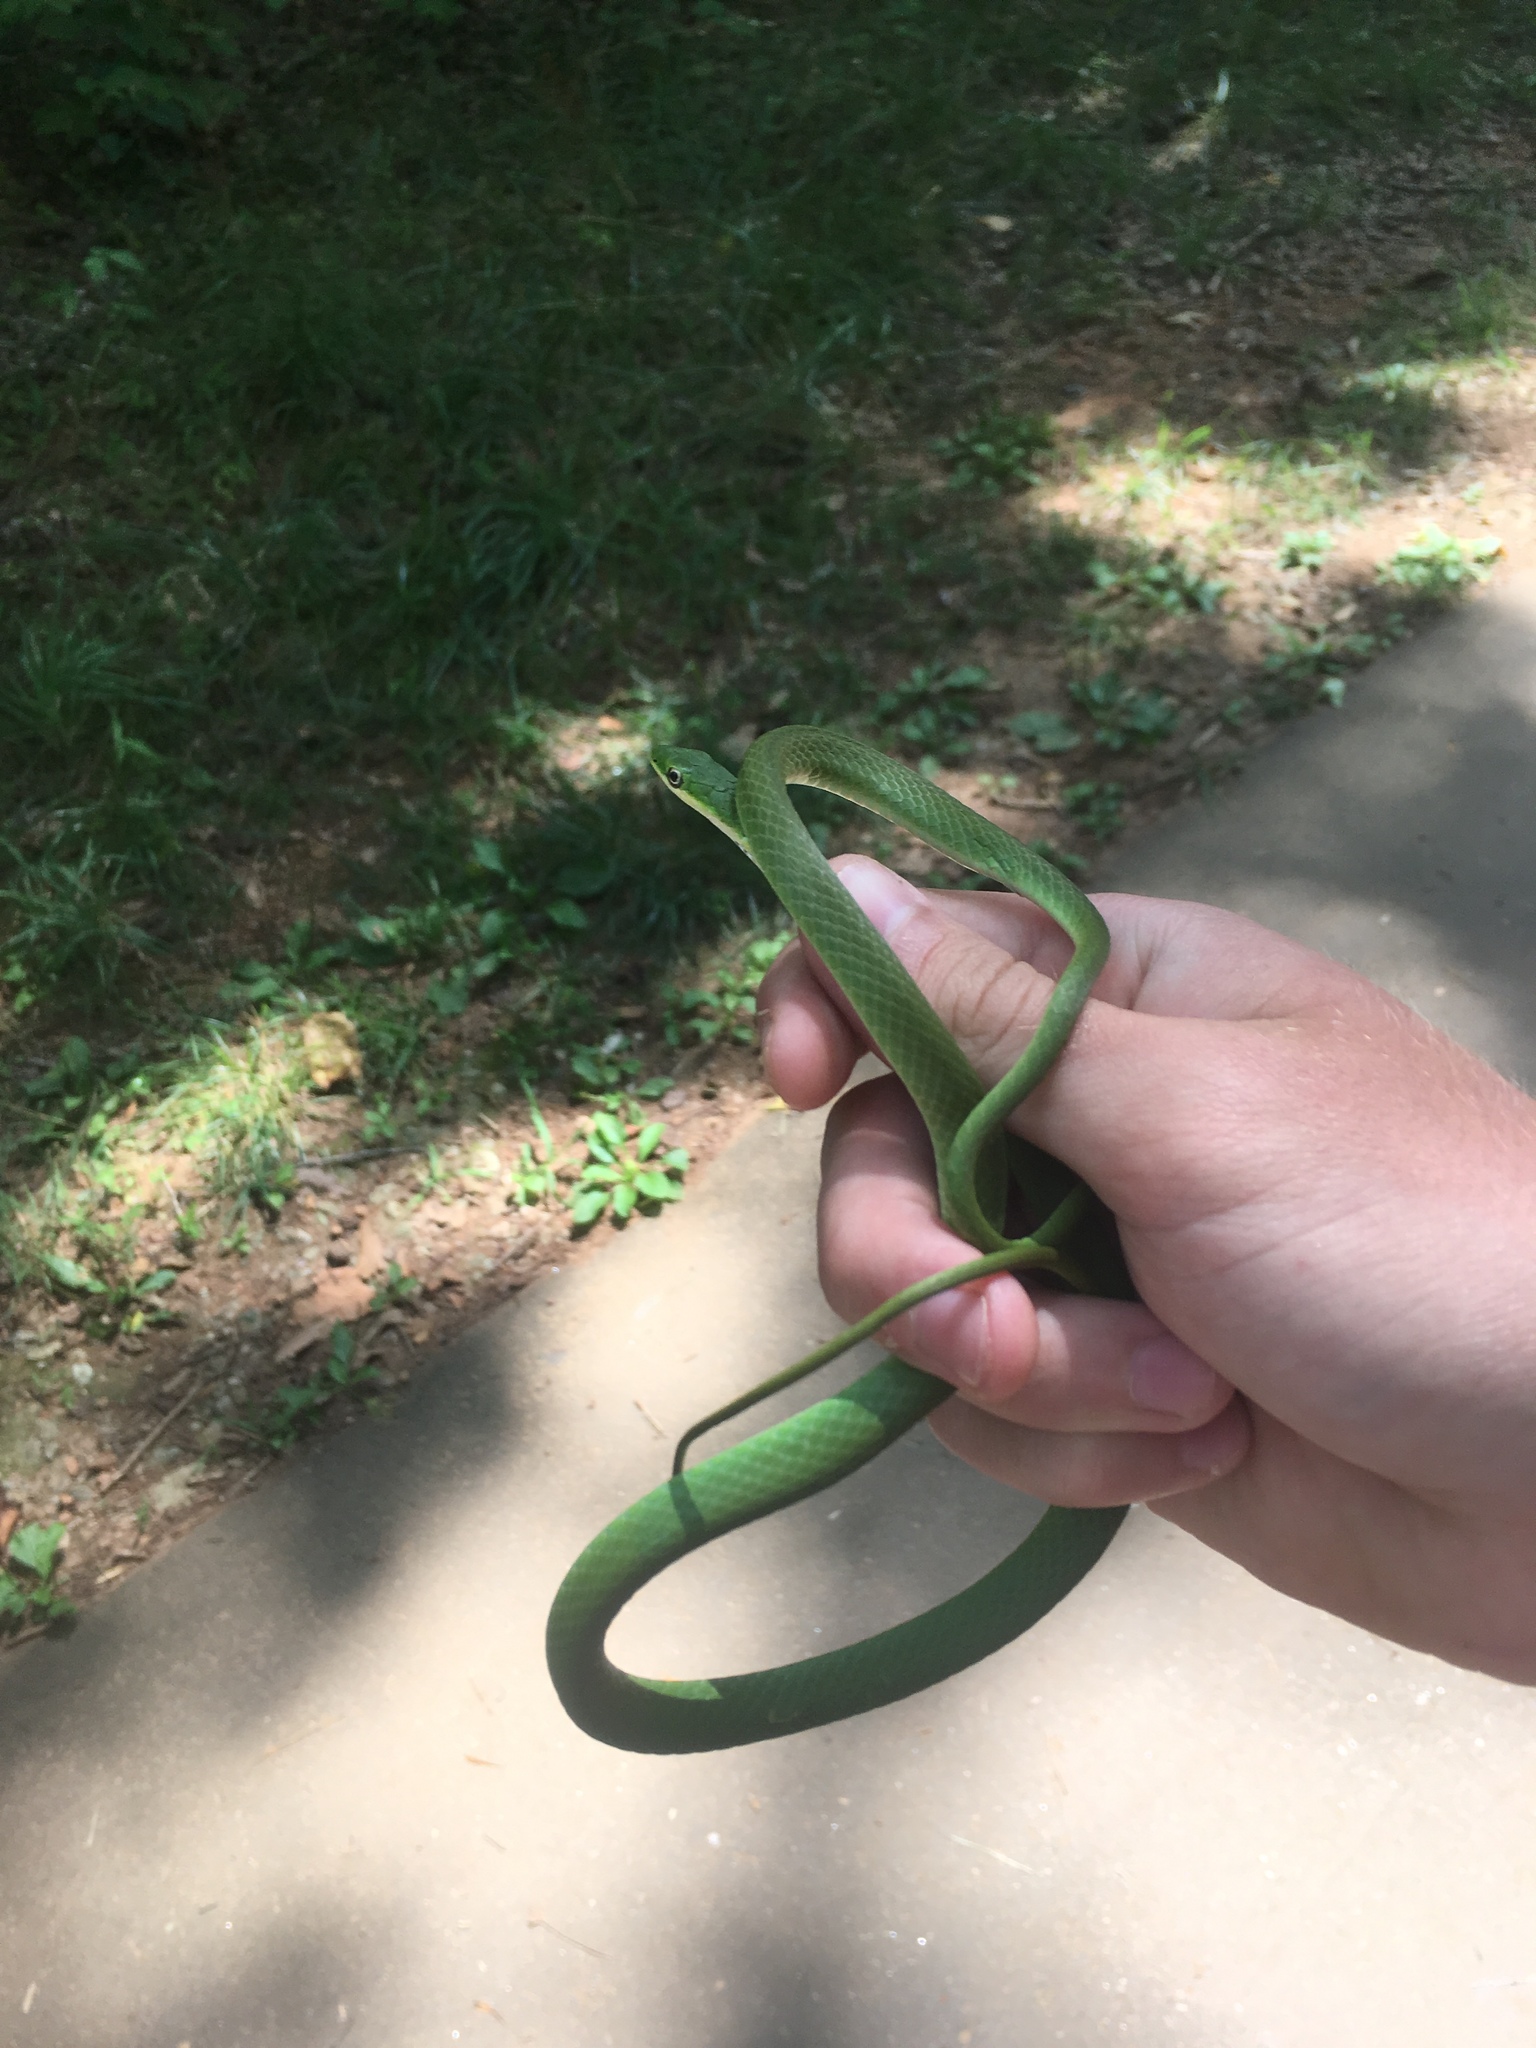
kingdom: Animalia
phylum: Chordata
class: Squamata
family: Colubridae
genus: Opheodrys
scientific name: Opheodrys aestivus
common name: Rough greensnake
